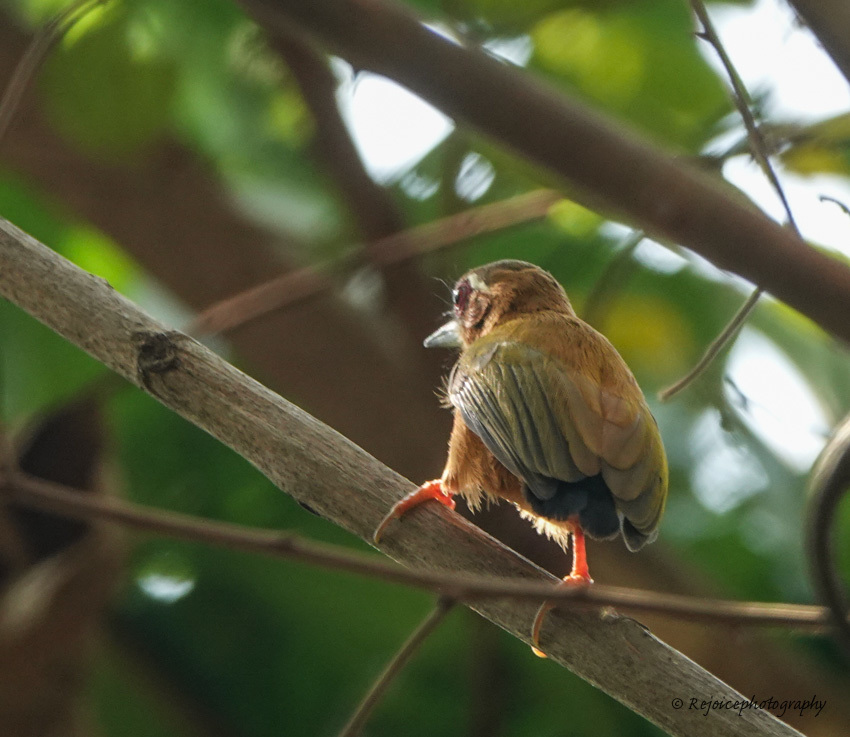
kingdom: Animalia
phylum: Chordata
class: Aves
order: Piciformes
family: Picidae
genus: Sasia
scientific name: Sasia ochracea
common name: White-browed piculet
